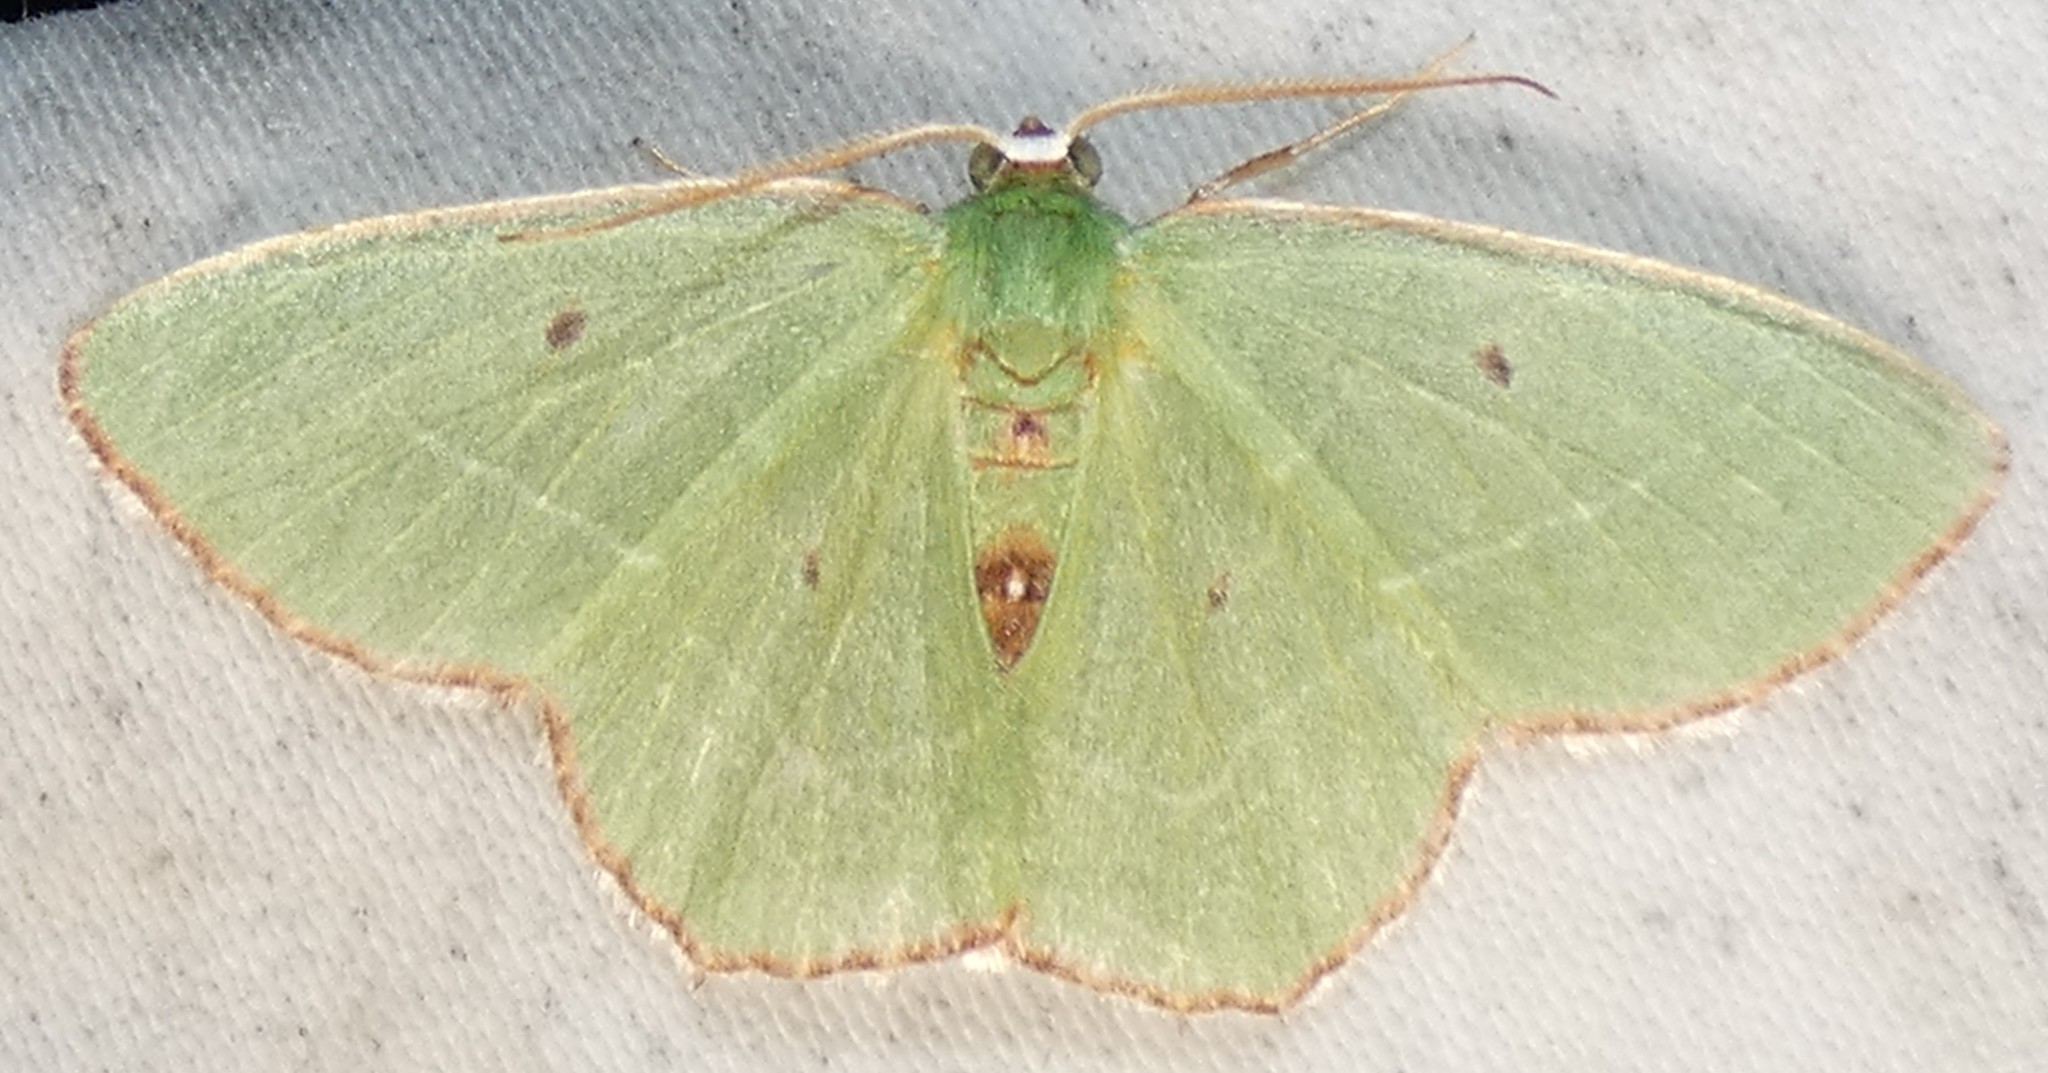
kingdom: Animalia
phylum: Arthropoda
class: Insecta
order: Lepidoptera
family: Geometridae
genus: Nemoria
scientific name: Nemoria saturiba
